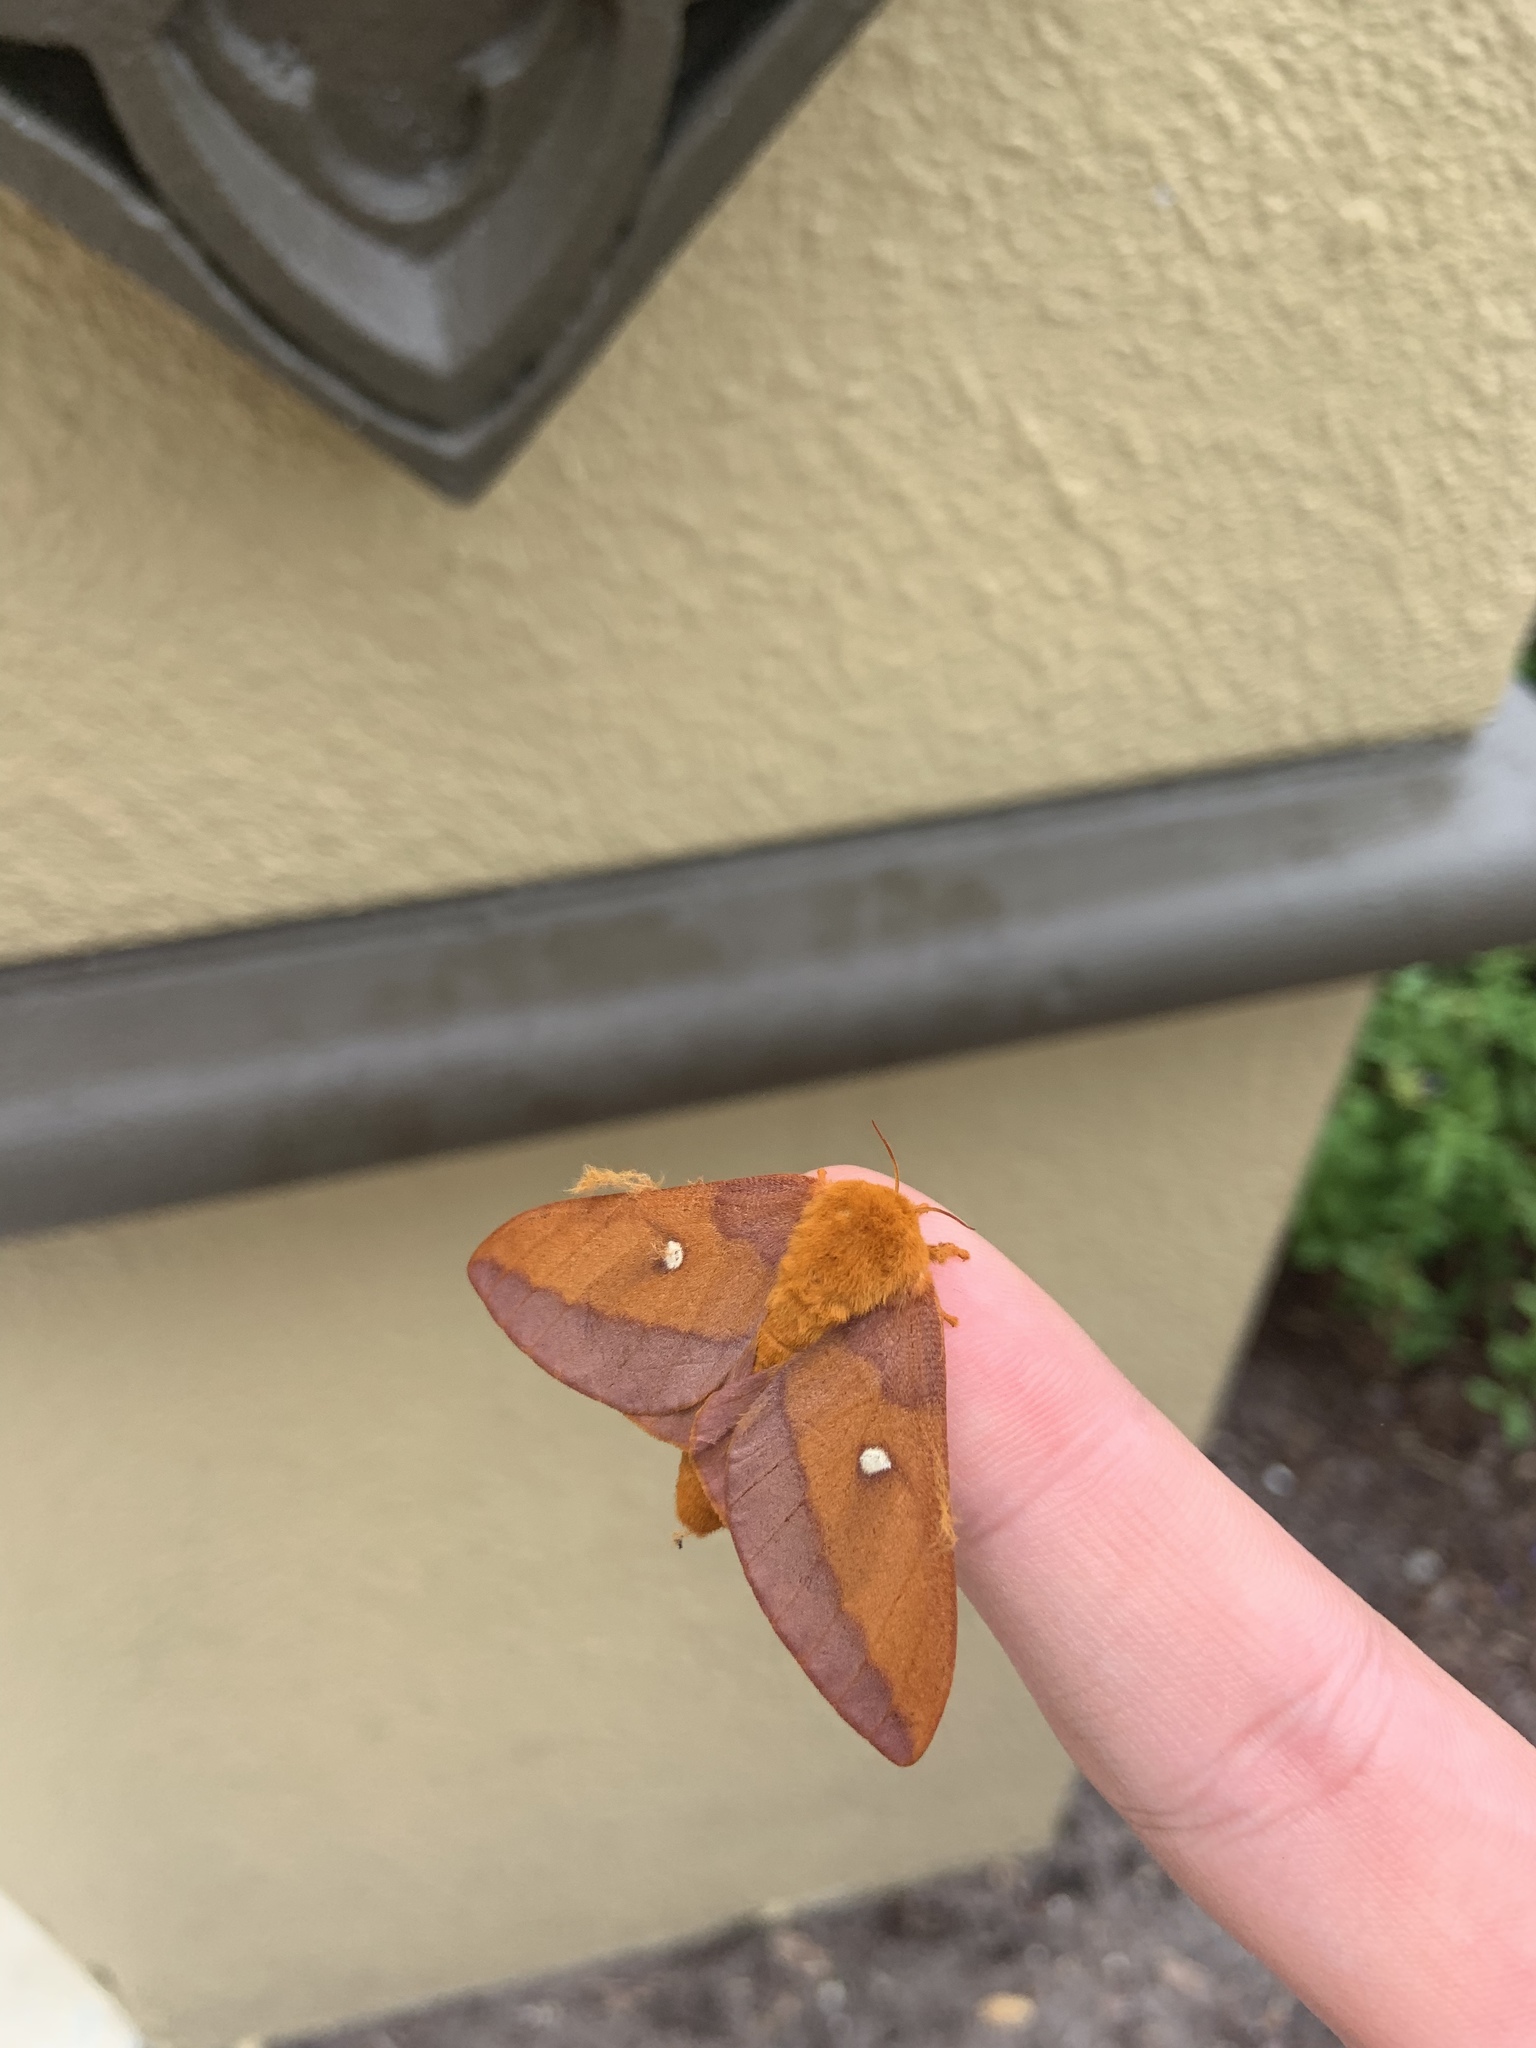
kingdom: Animalia
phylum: Arthropoda
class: Insecta
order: Lepidoptera
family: Saturniidae
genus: Anisota
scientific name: Anisota virginiensis
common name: Pink striped oakworm moth
